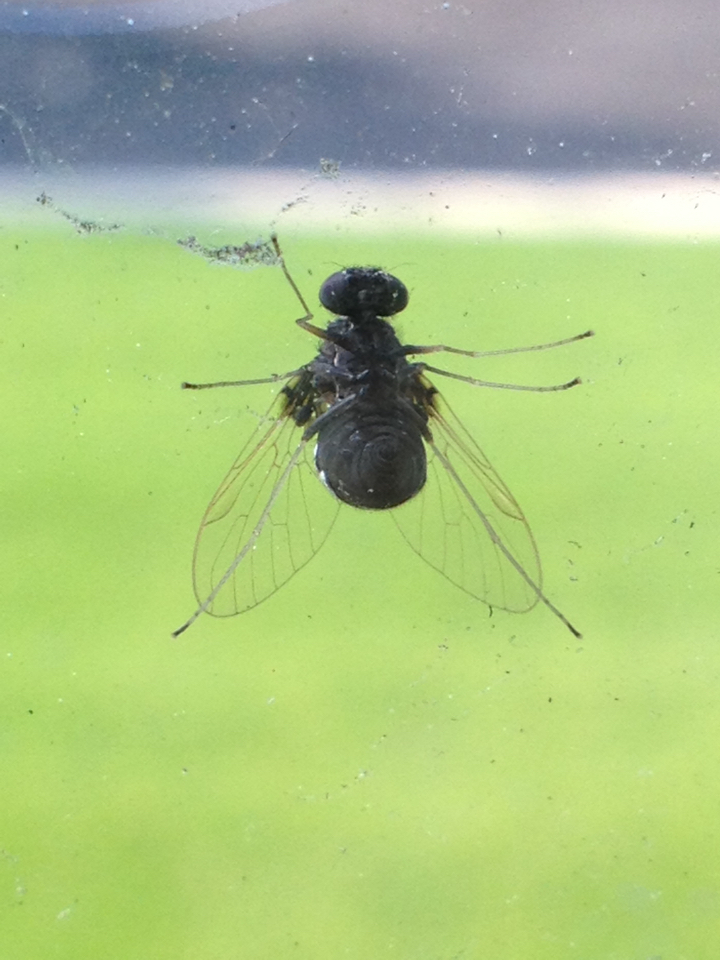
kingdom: Animalia
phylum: Arthropoda
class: Insecta
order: Diptera
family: Rhagionidae
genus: Chrysopilus
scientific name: Chrysopilus basilaris
